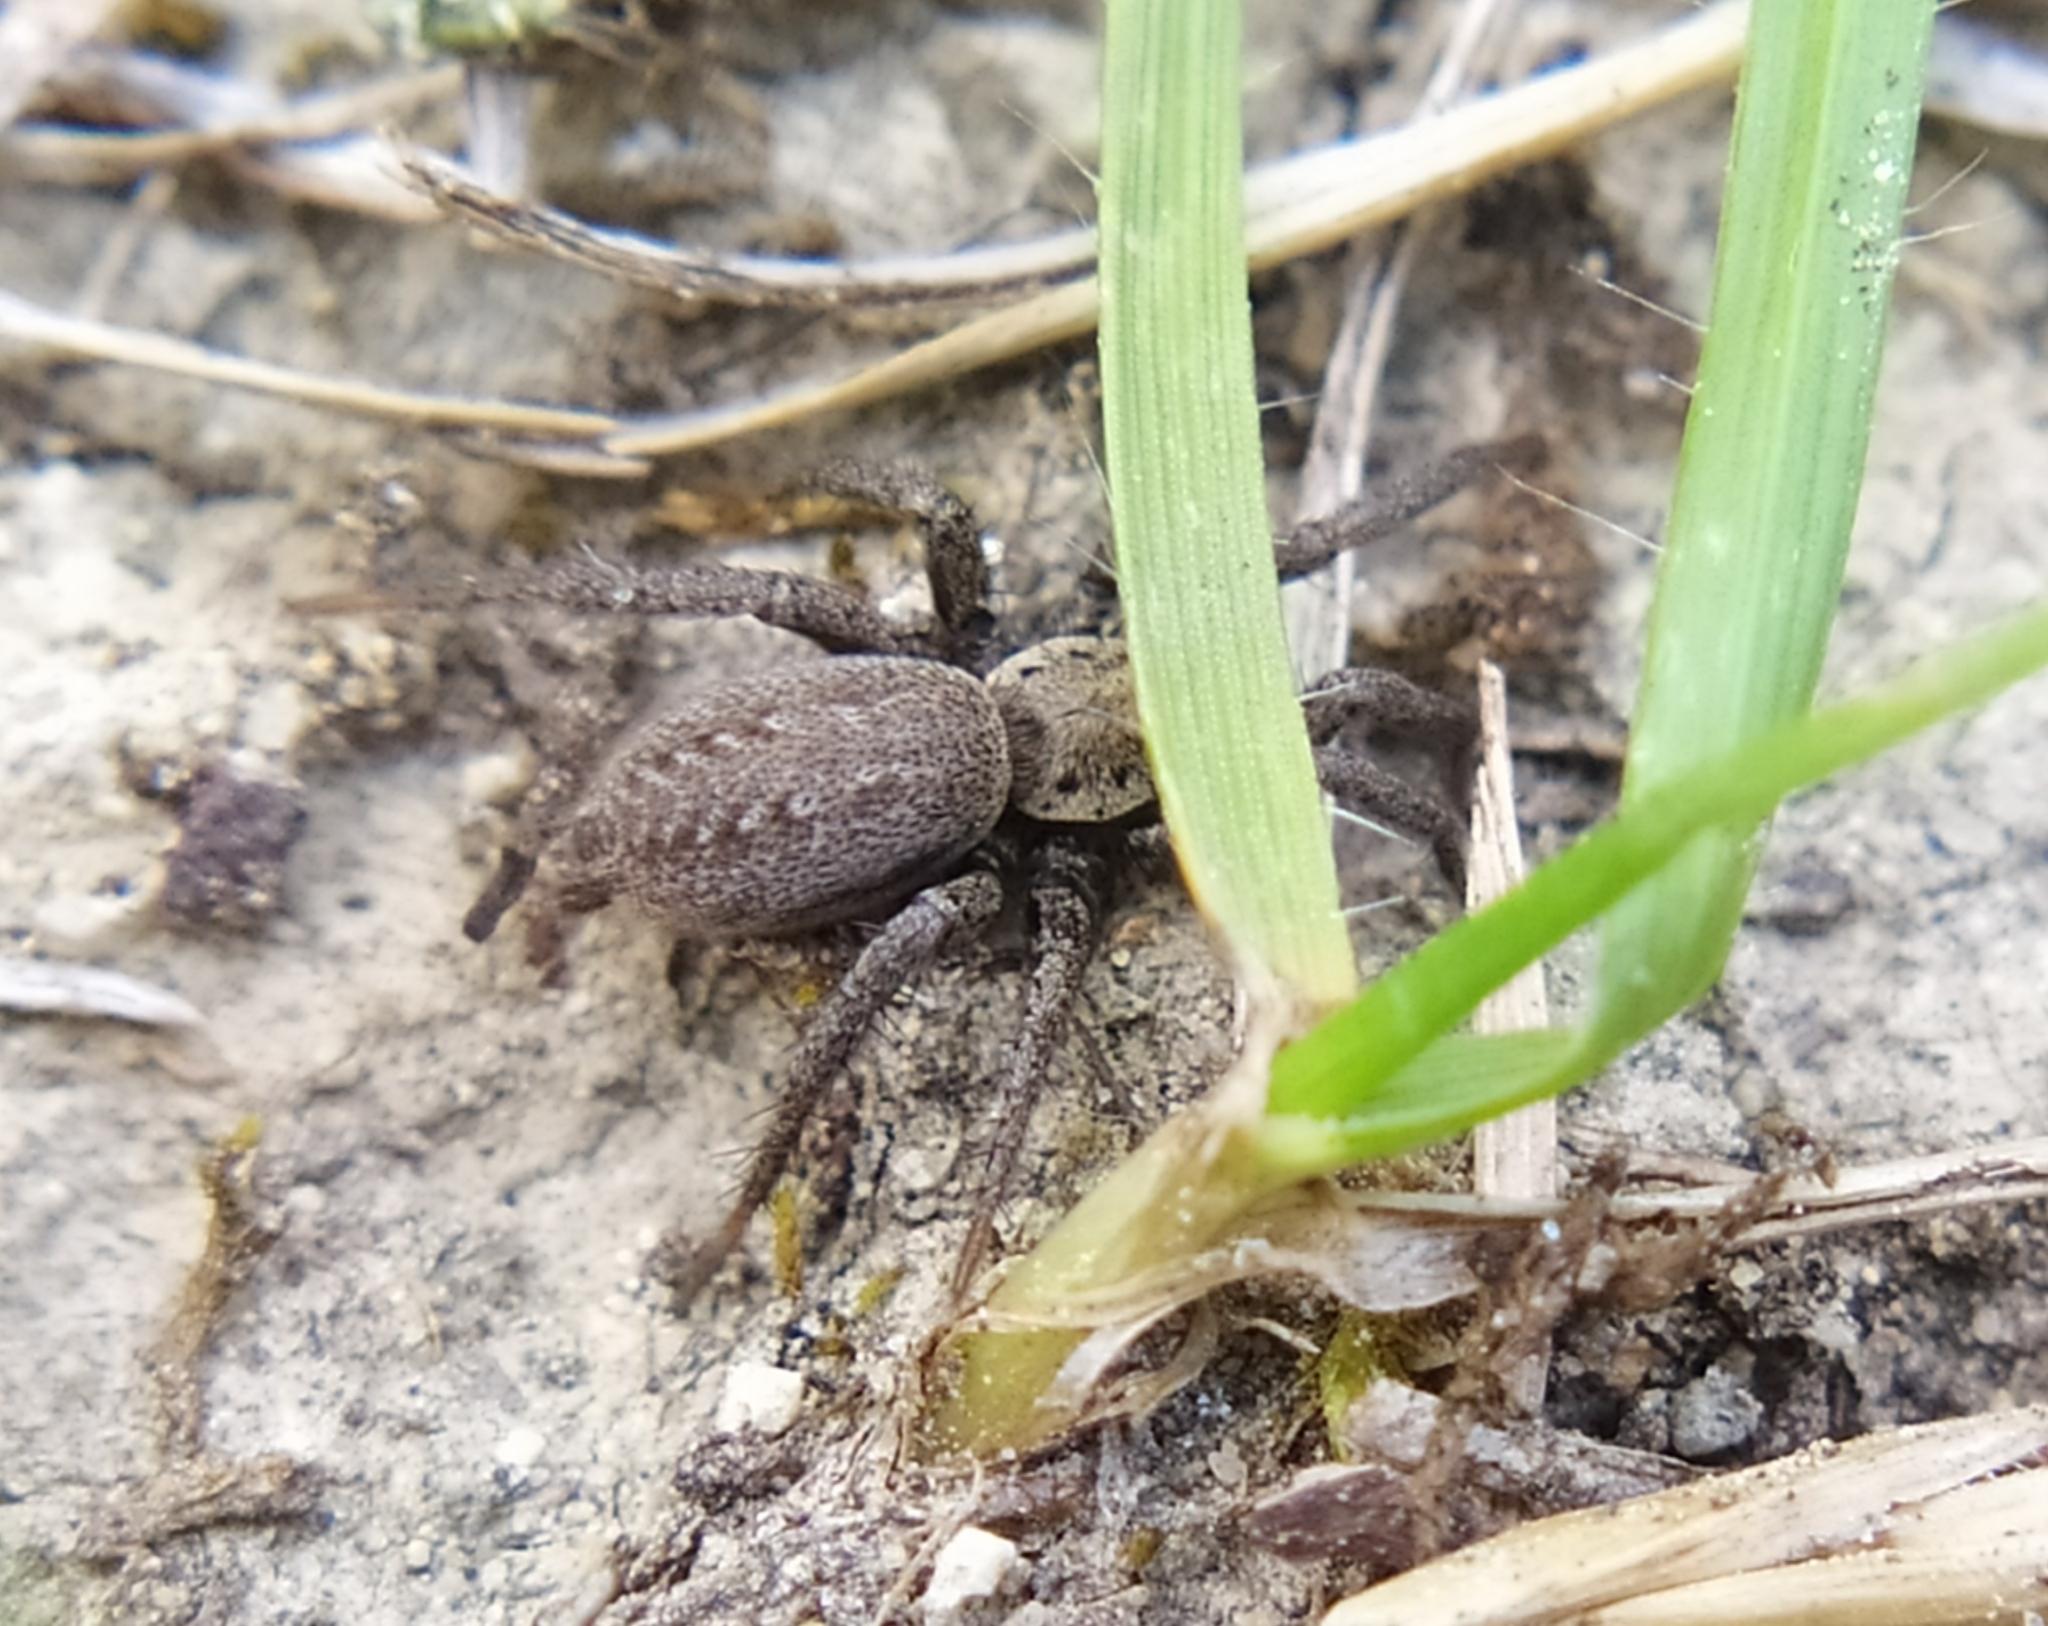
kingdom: Animalia
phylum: Arthropoda
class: Arachnida
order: Araneae
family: Gnaphosidae
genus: Berlandina
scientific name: Berlandina cinerea
